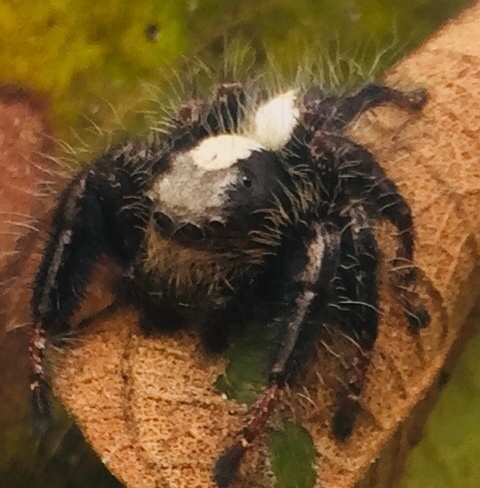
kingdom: Animalia
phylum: Arthropoda
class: Arachnida
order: Araneae
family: Salticidae
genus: Hyllus
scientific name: Hyllus treleaveni
